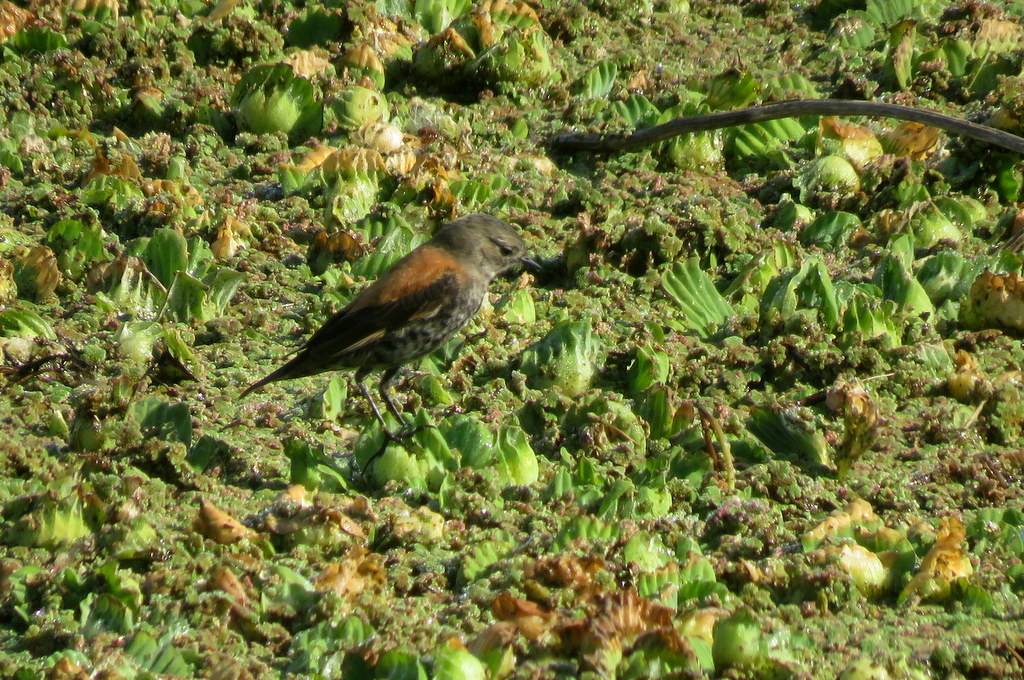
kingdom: Animalia
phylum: Chordata
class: Aves
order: Passeriformes
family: Tyrannidae
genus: Lessonia
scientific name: Lessonia rufa
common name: Austral negrito
